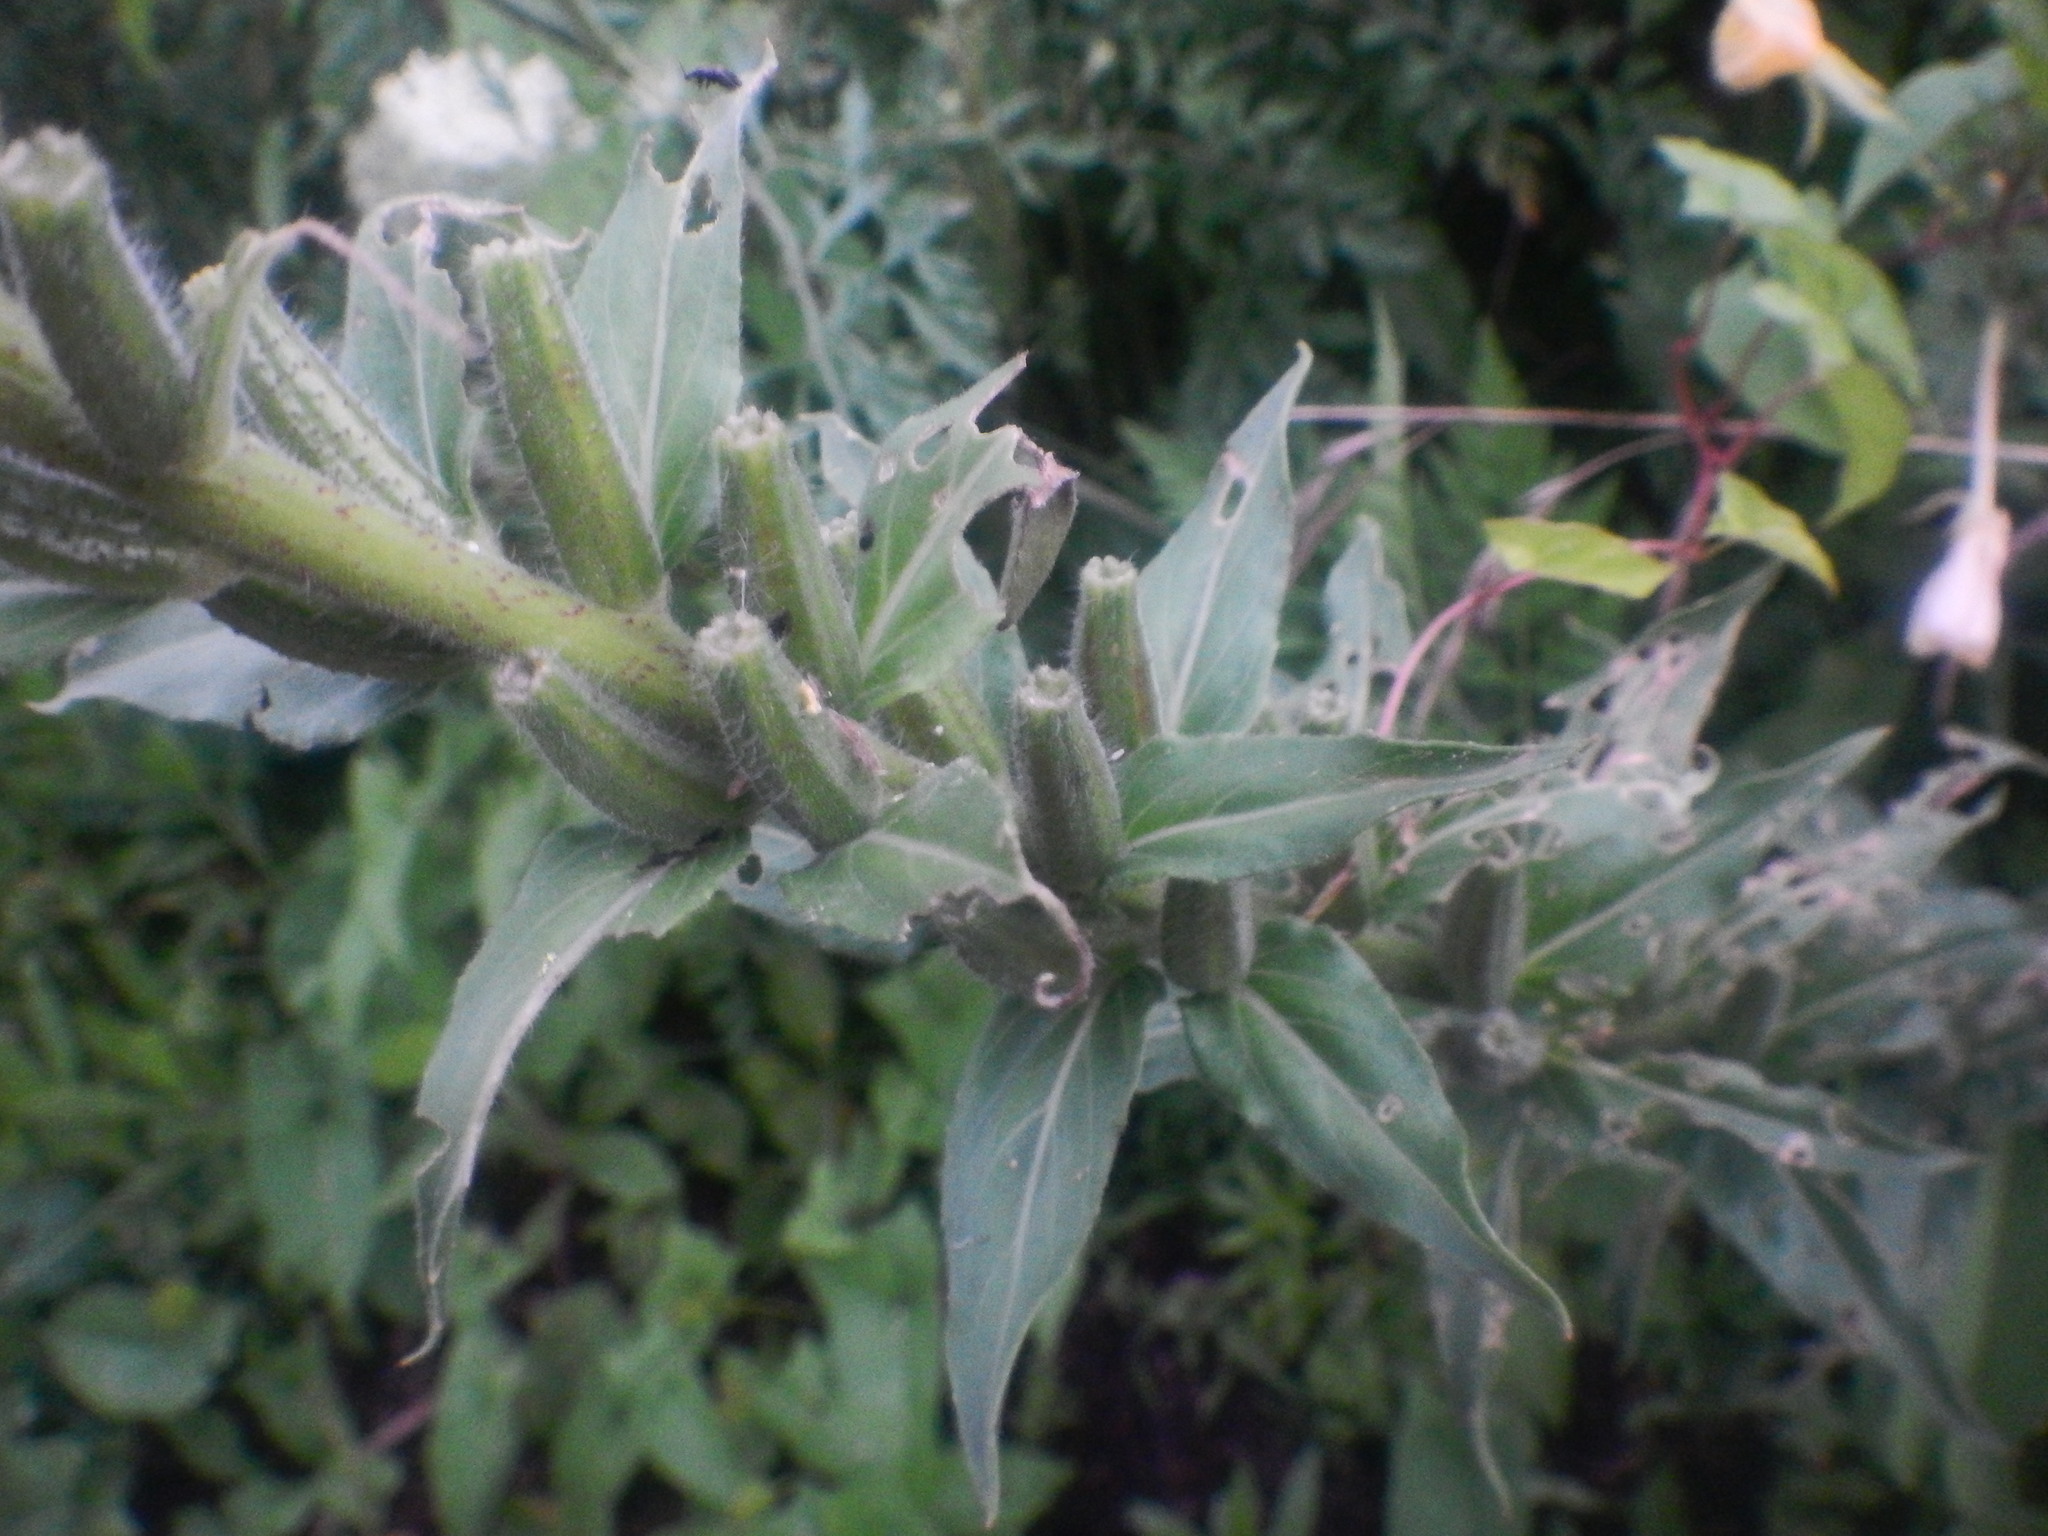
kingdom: Plantae
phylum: Tracheophyta
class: Magnoliopsida
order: Myrtales
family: Onagraceae
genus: Oenothera
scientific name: Oenothera biennis
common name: Common evening-primrose
